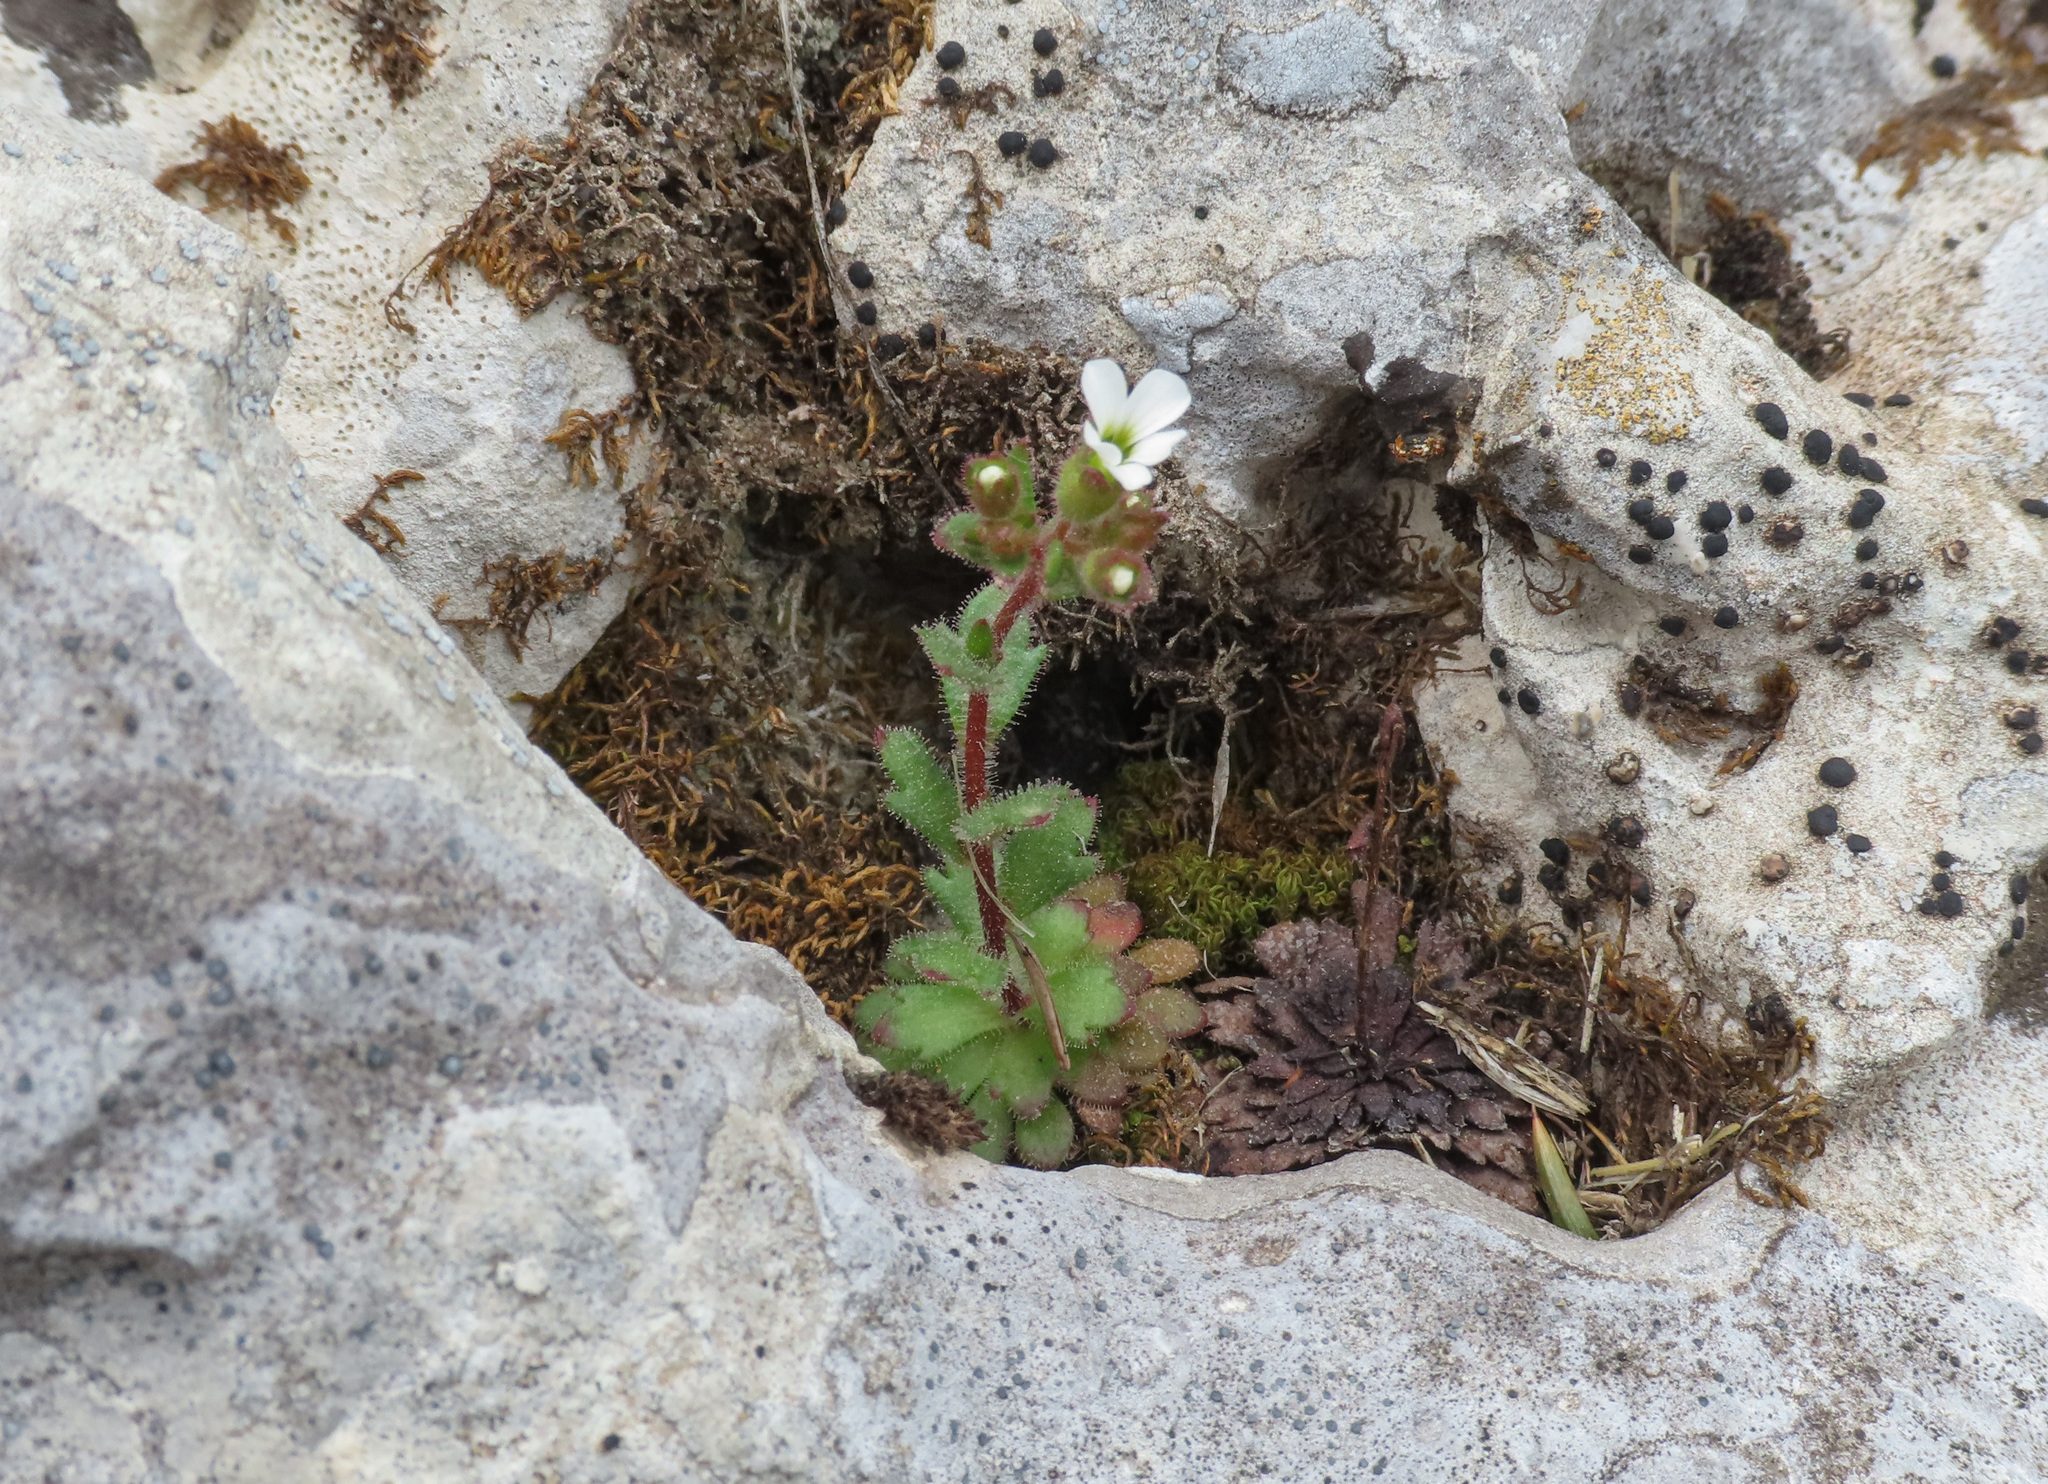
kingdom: Plantae
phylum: Tracheophyta
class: Magnoliopsida
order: Saxifragales
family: Saxifragaceae
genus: Saxifraga
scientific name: Saxifraga adscendens
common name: Ascending saxifrage
